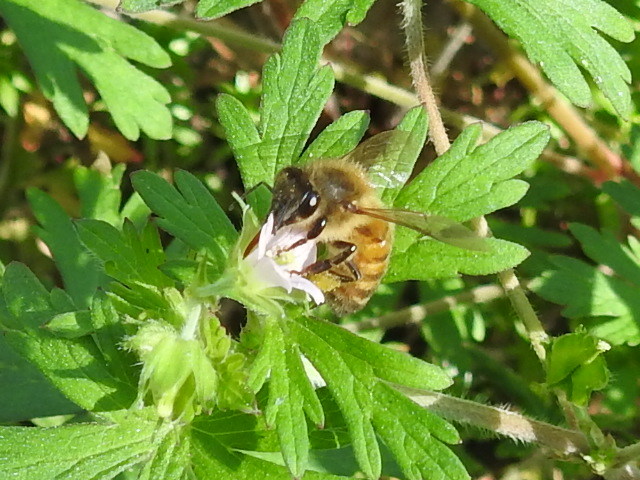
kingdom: Animalia
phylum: Arthropoda
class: Insecta
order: Hymenoptera
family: Apidae
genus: Apis
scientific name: Apis mellifera
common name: Honey bee
